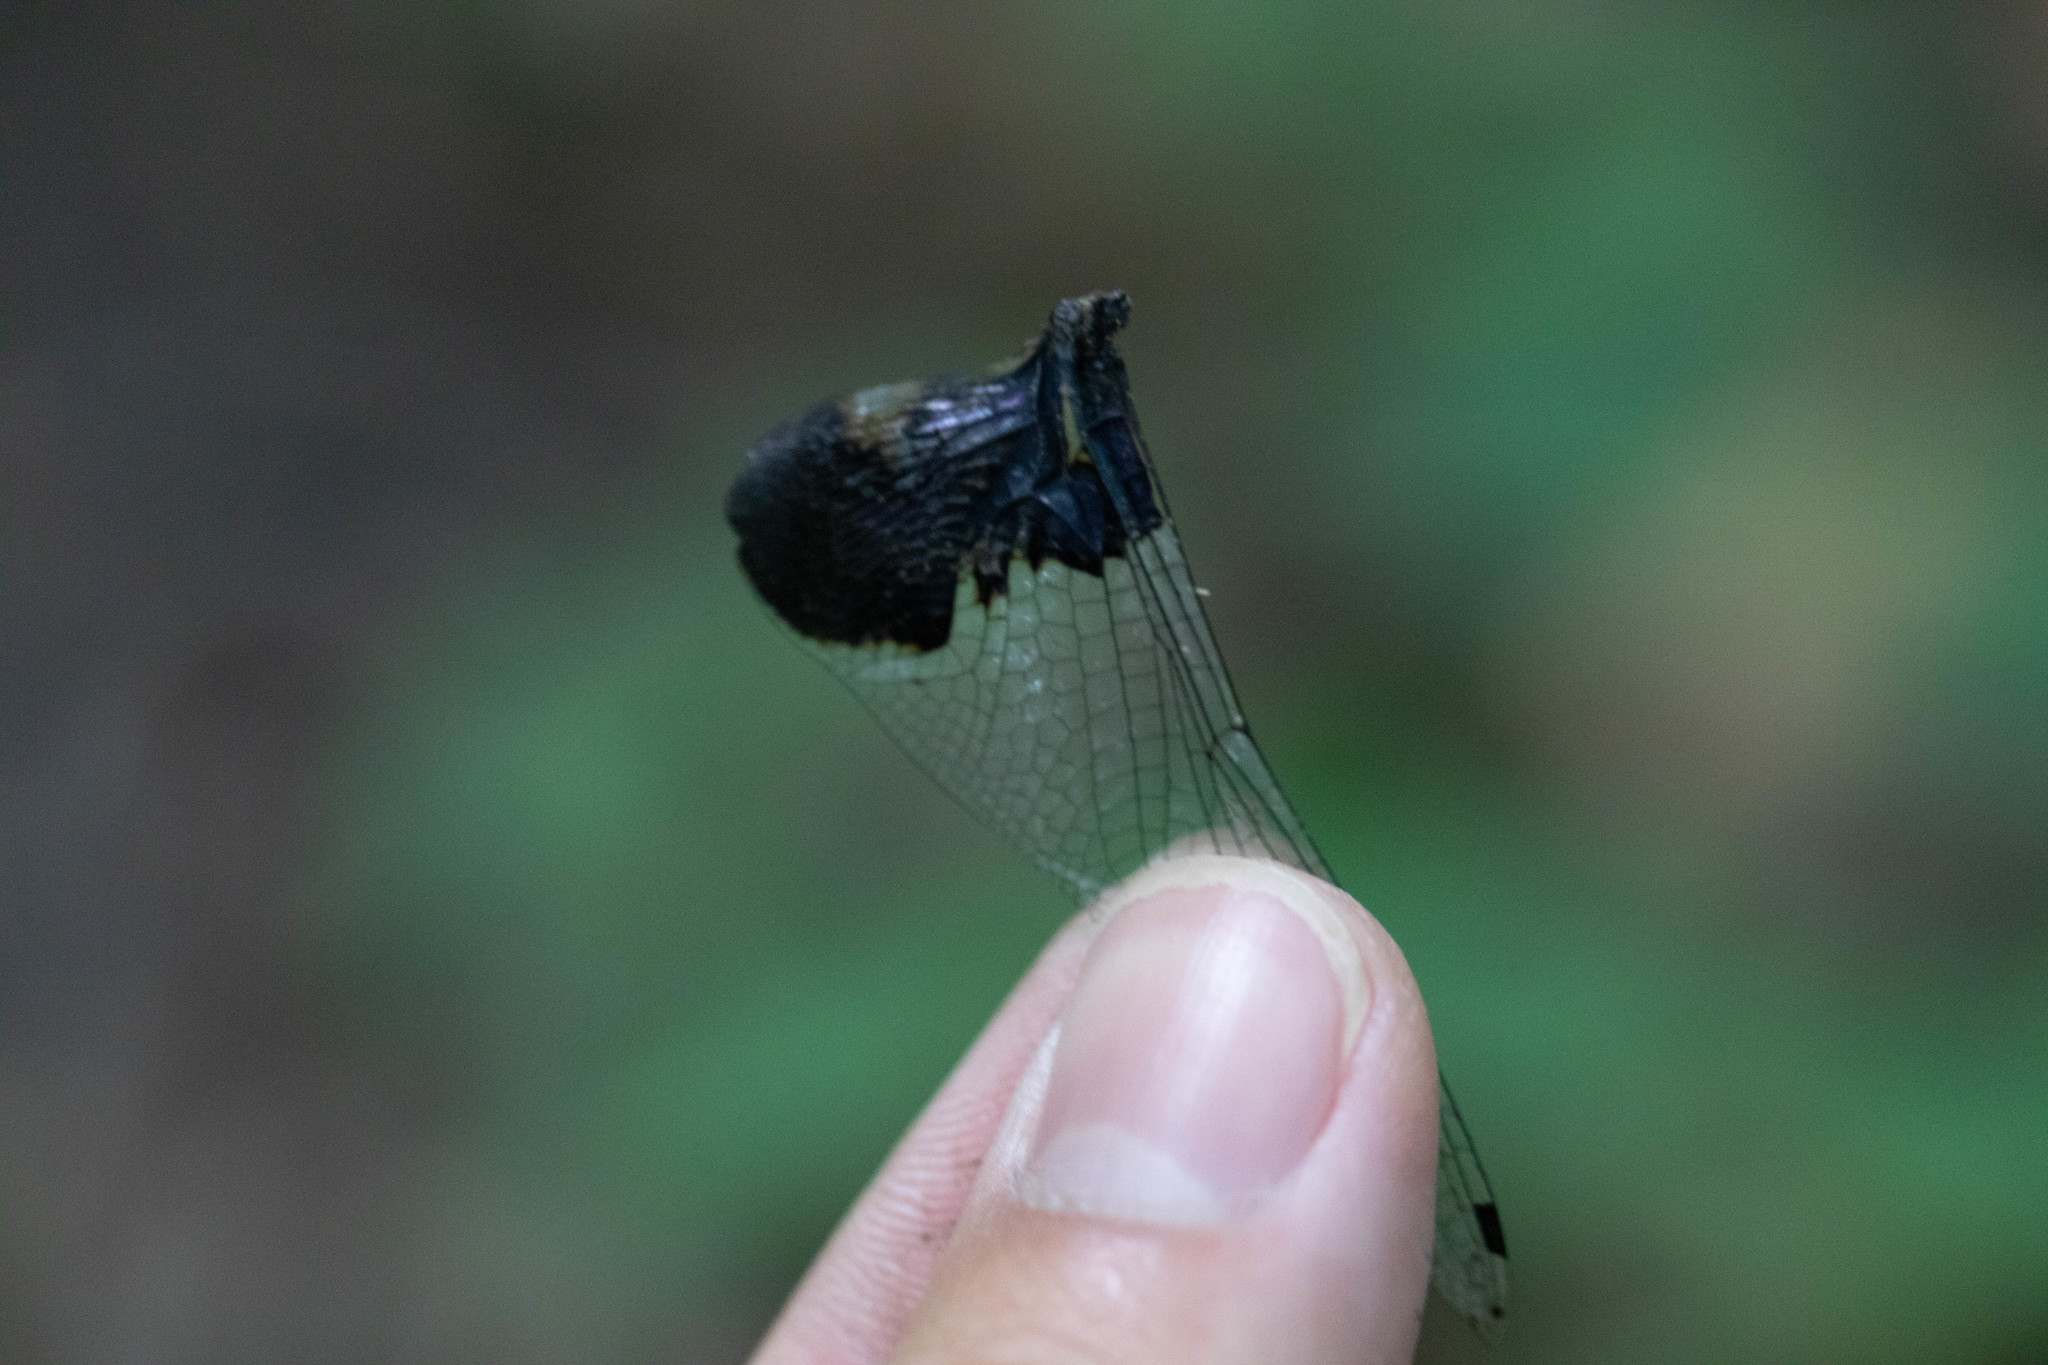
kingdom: Animalia
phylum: Arthropoda
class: Insecta
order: Odonata
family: Libellulidae
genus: Tramea
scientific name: Tramea lacerata
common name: Black saddlebags
